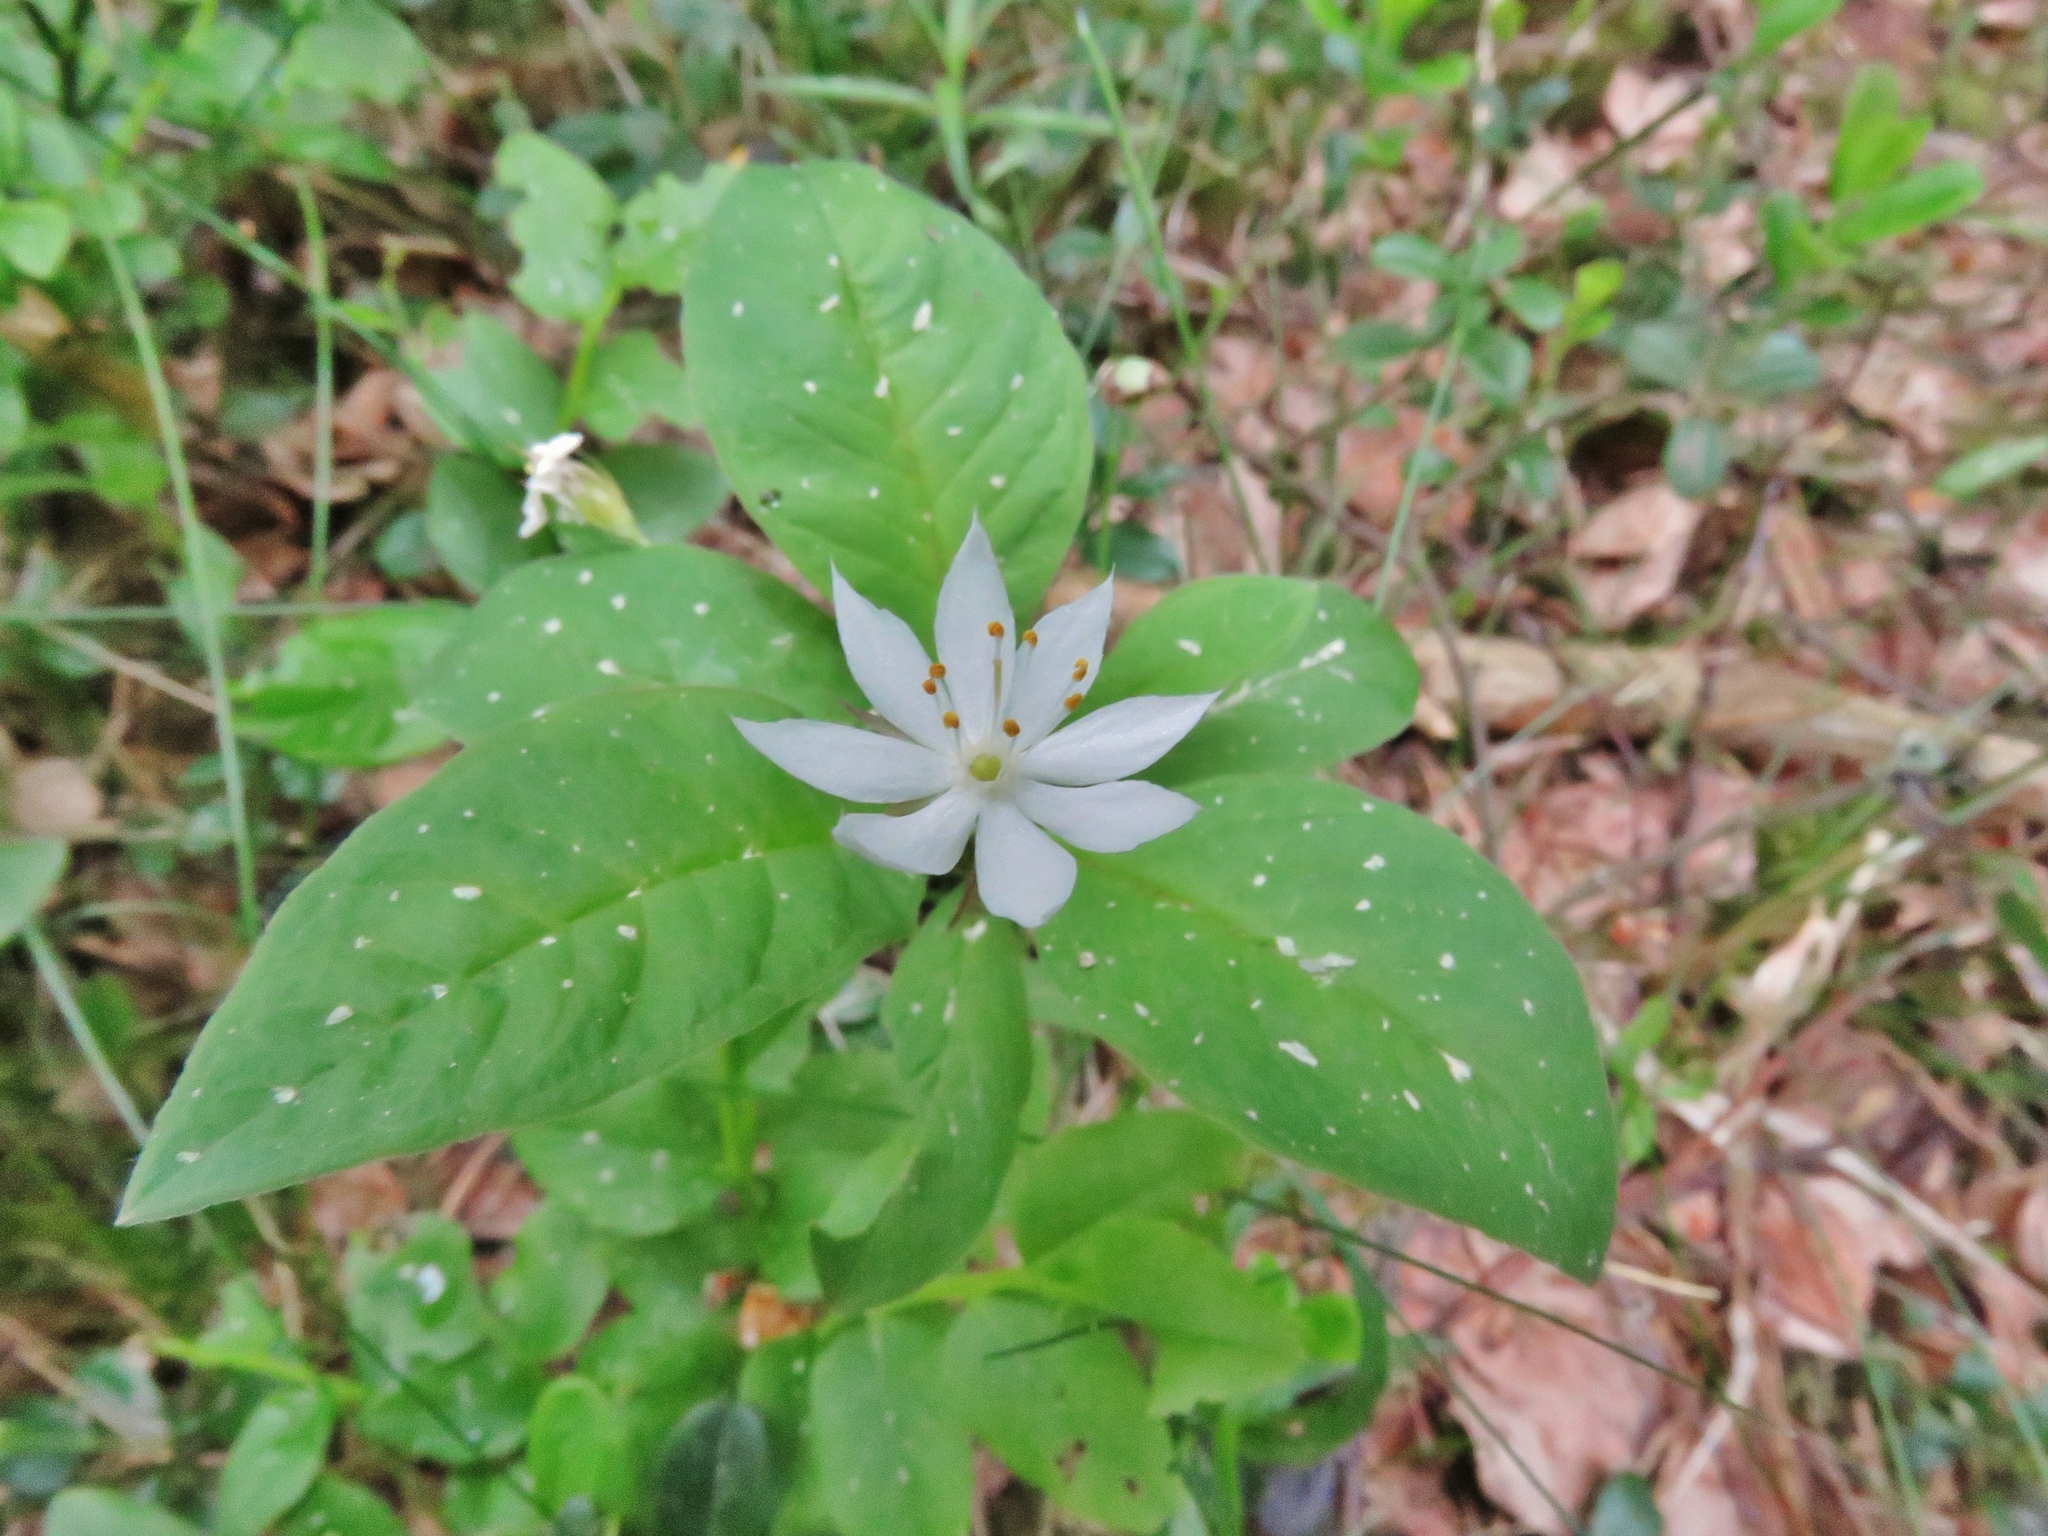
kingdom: Plantae
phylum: Tracheophyta
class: Magnoliopsida
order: Ericales
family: Primulaceae
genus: Lysimachia
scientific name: Lysimachia europaea
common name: Arctic starflower
